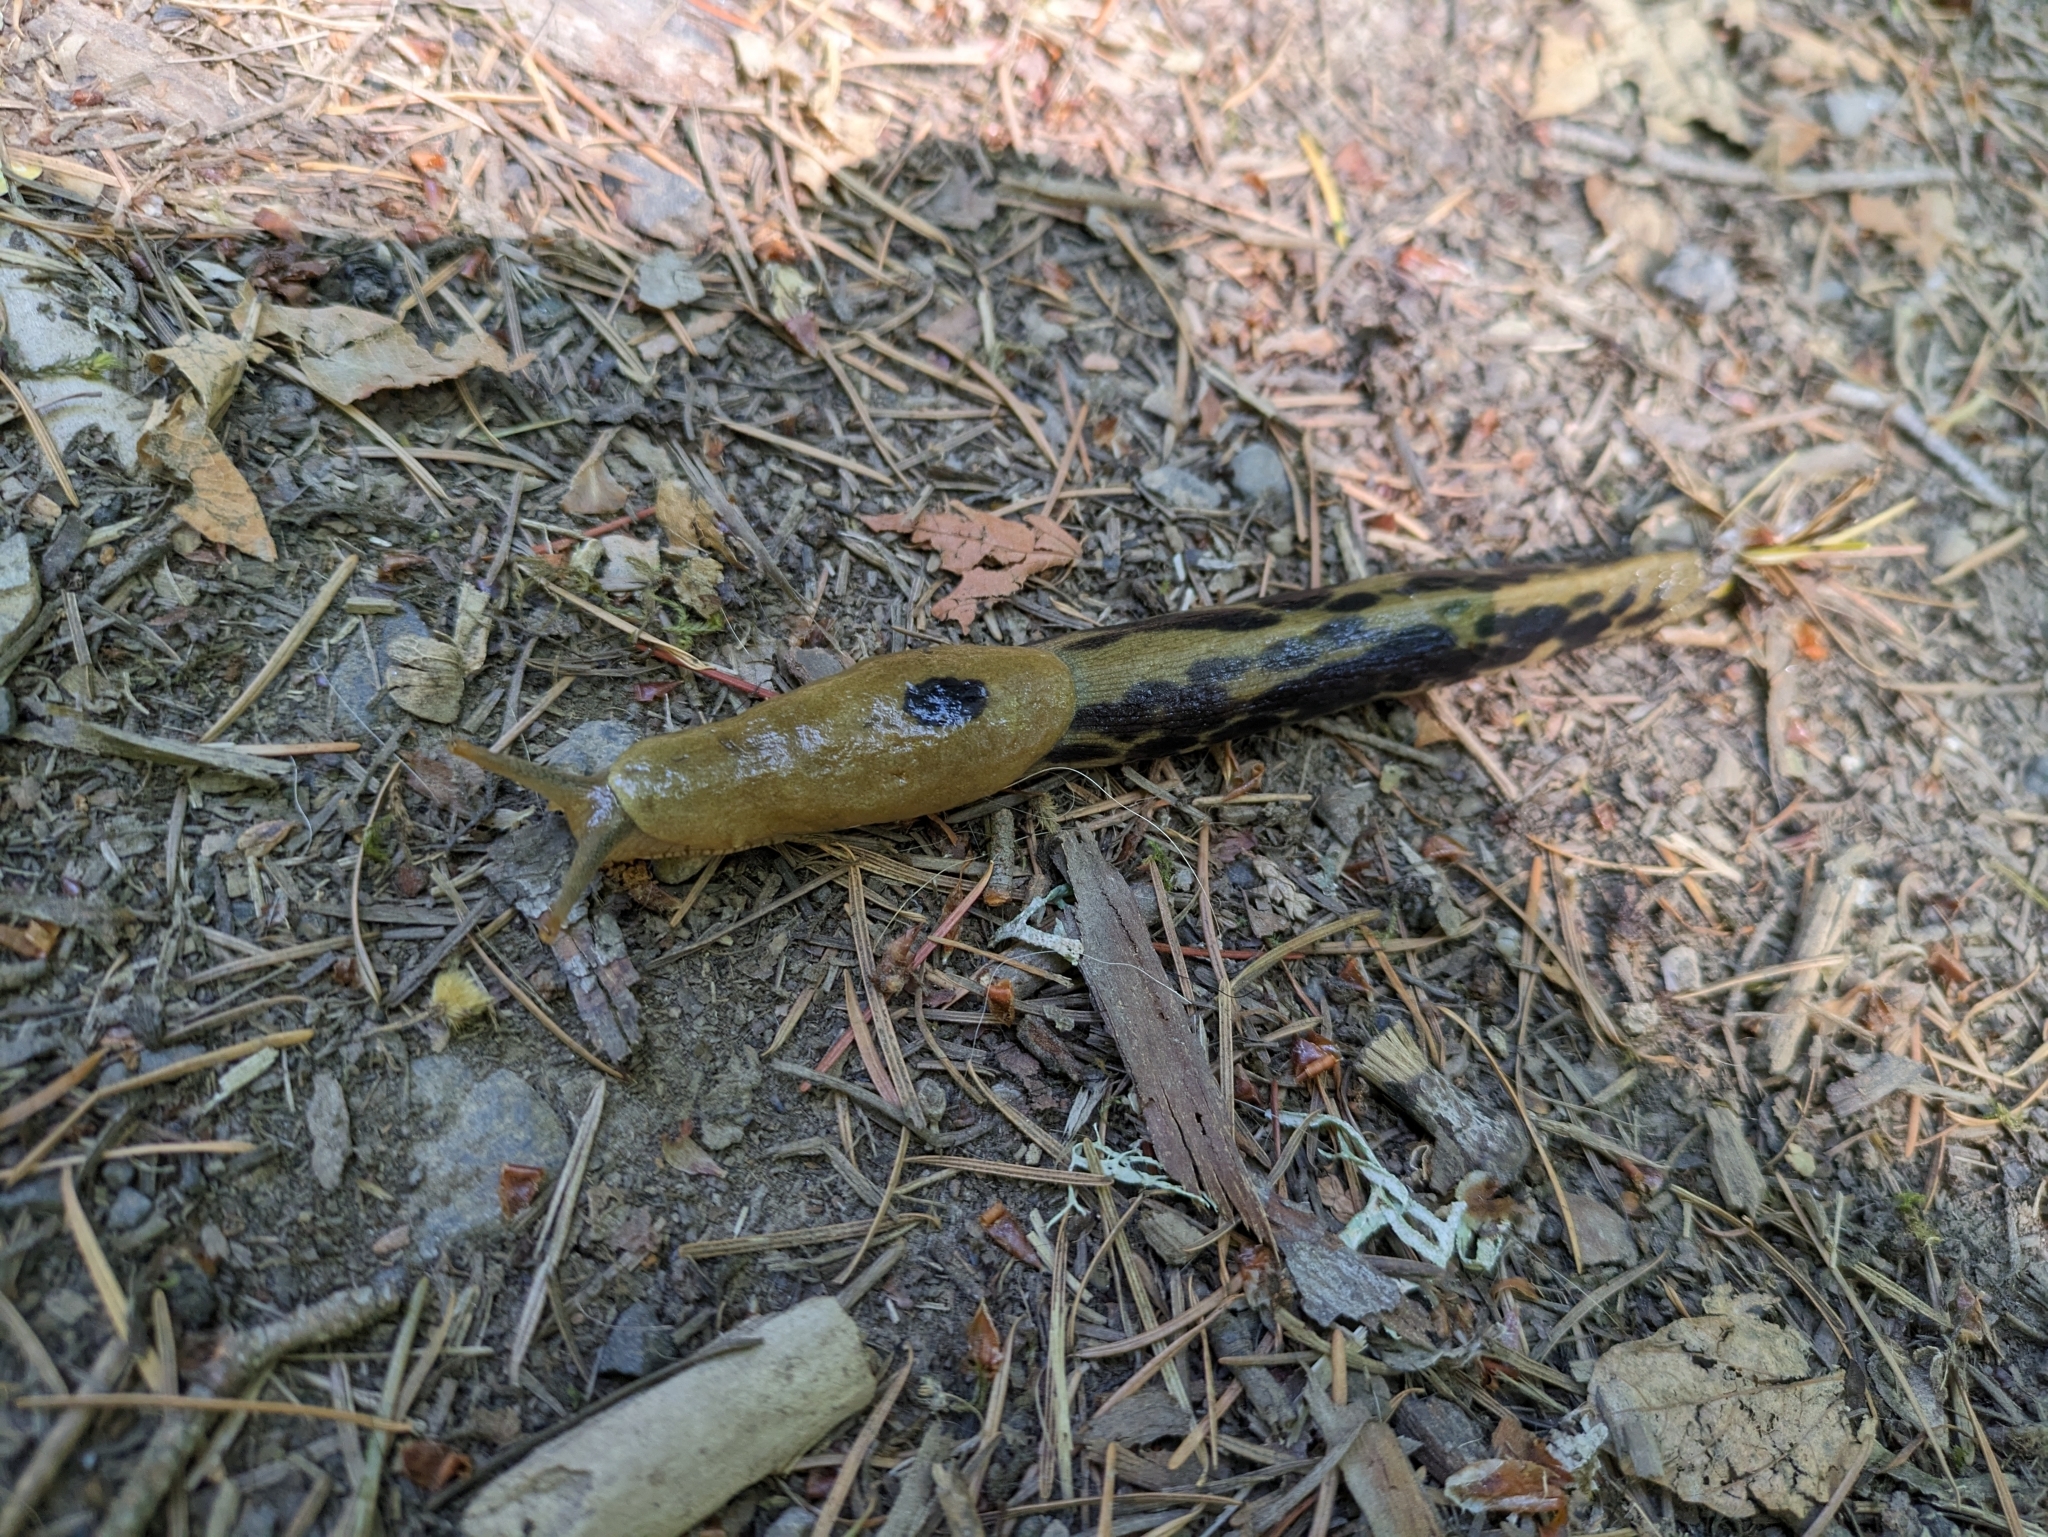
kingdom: Animalia
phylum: Mollusca
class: Gastropoda
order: Stylommatophora
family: Ariolimacidae
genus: Ariolimax
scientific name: Ariolimax columbianus
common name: Pacific banana slug
